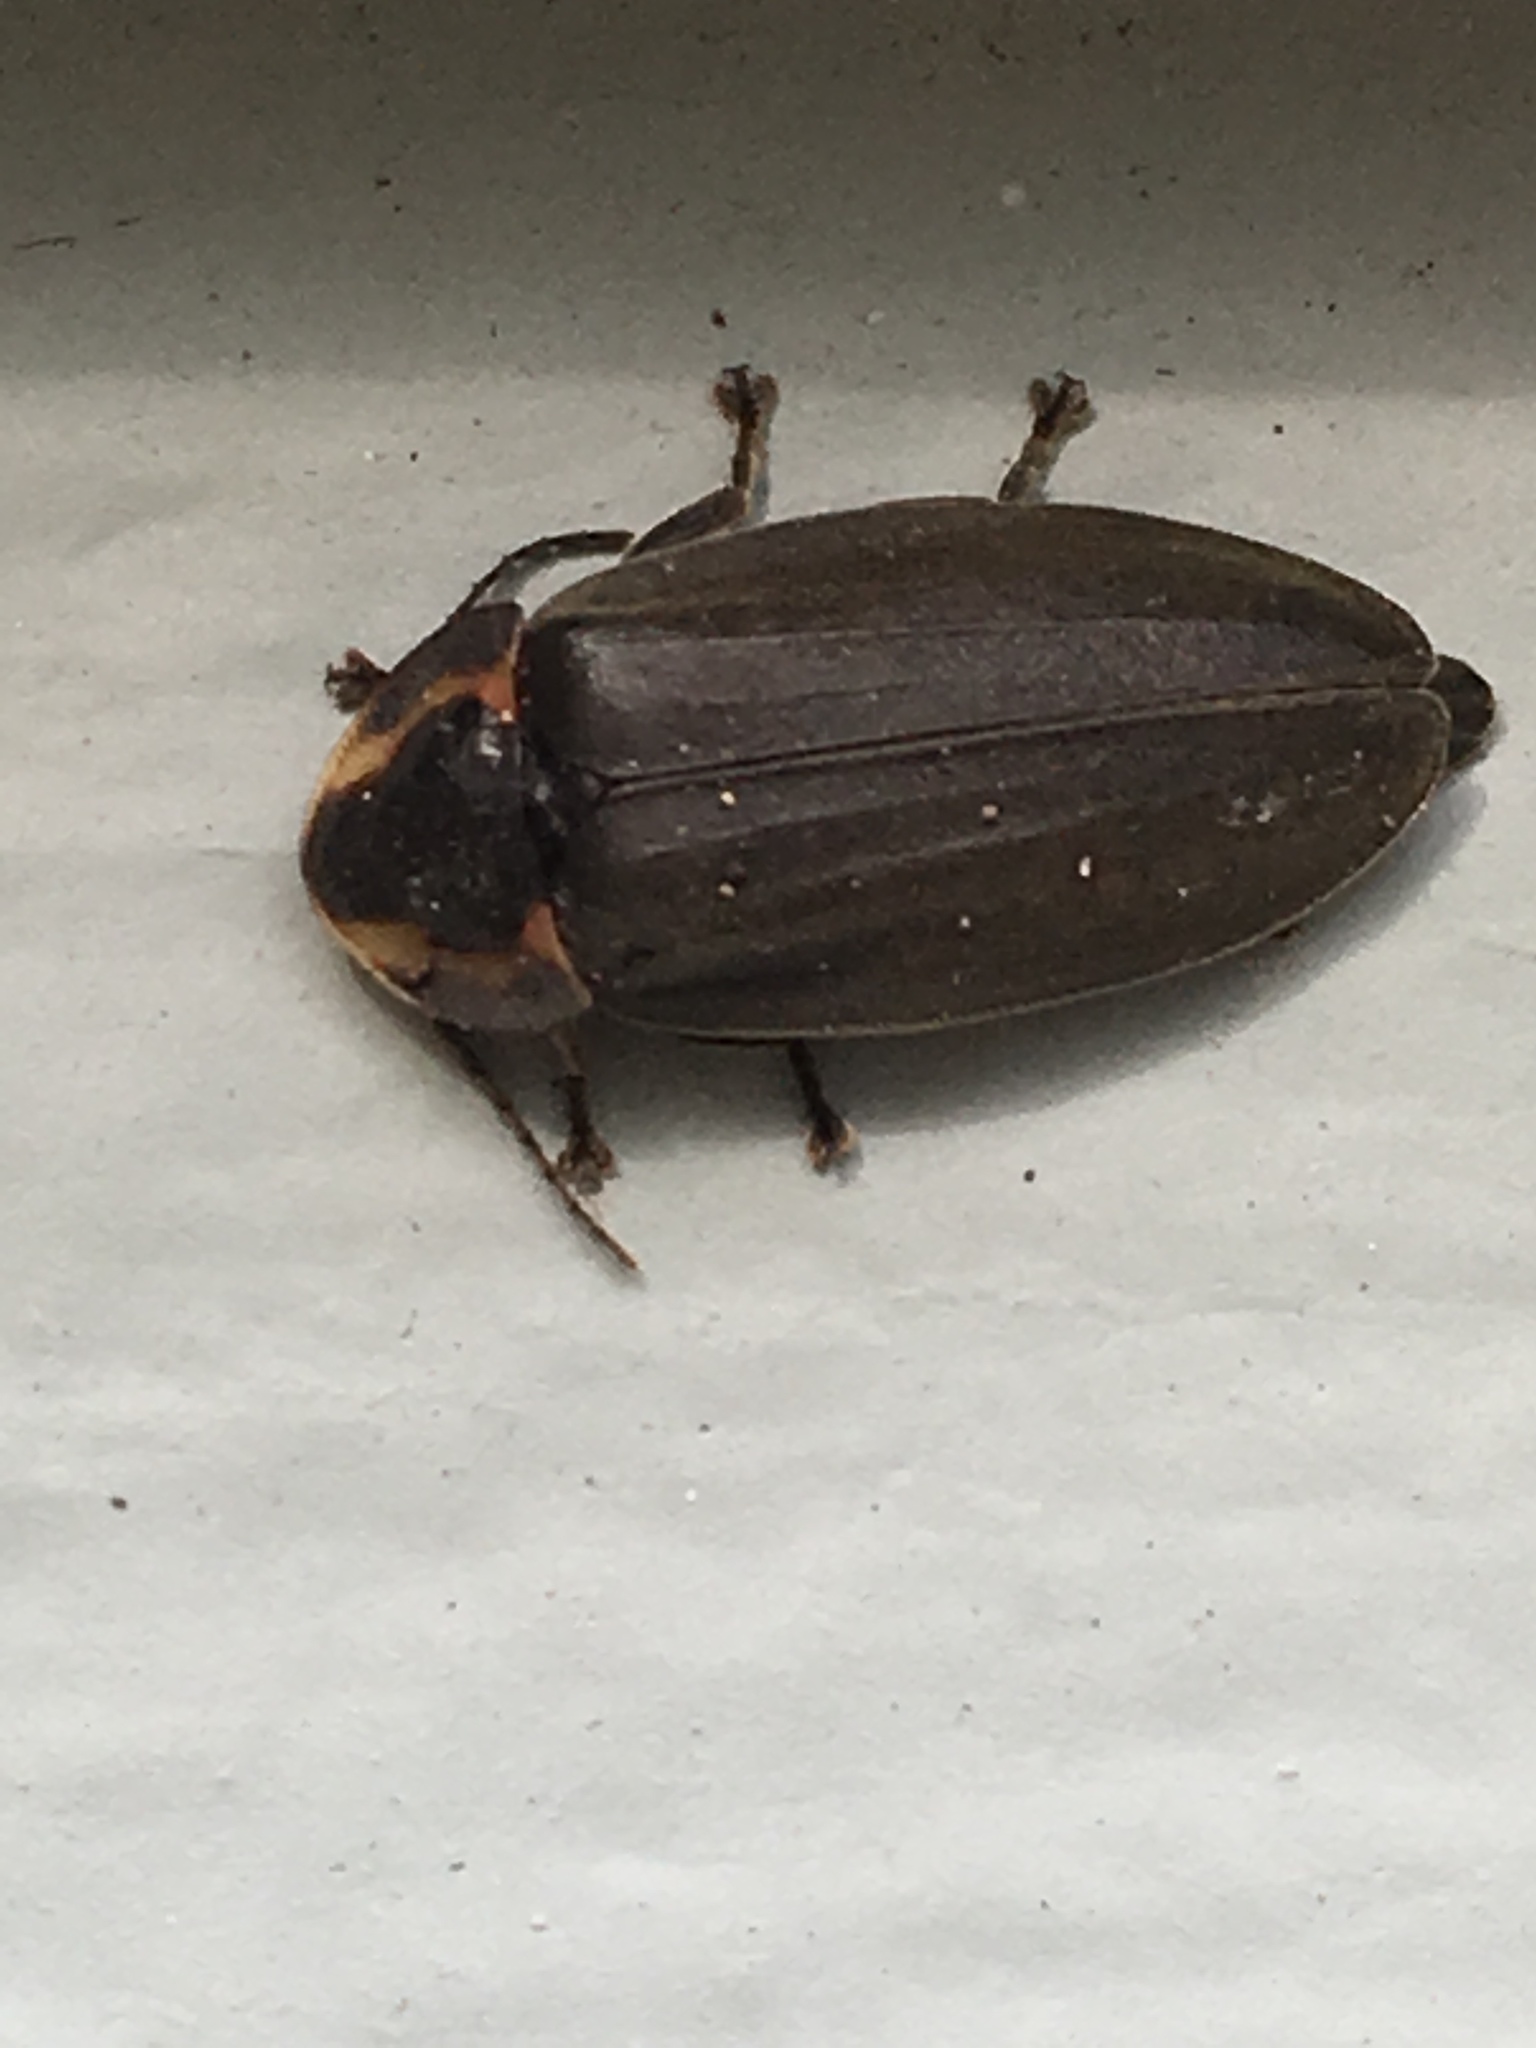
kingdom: Animalia
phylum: Arthropoda
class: Insecta
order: Coleoptera
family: Lampyridae
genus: Photinus
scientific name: Photinus corrusca
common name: Winter firefly
